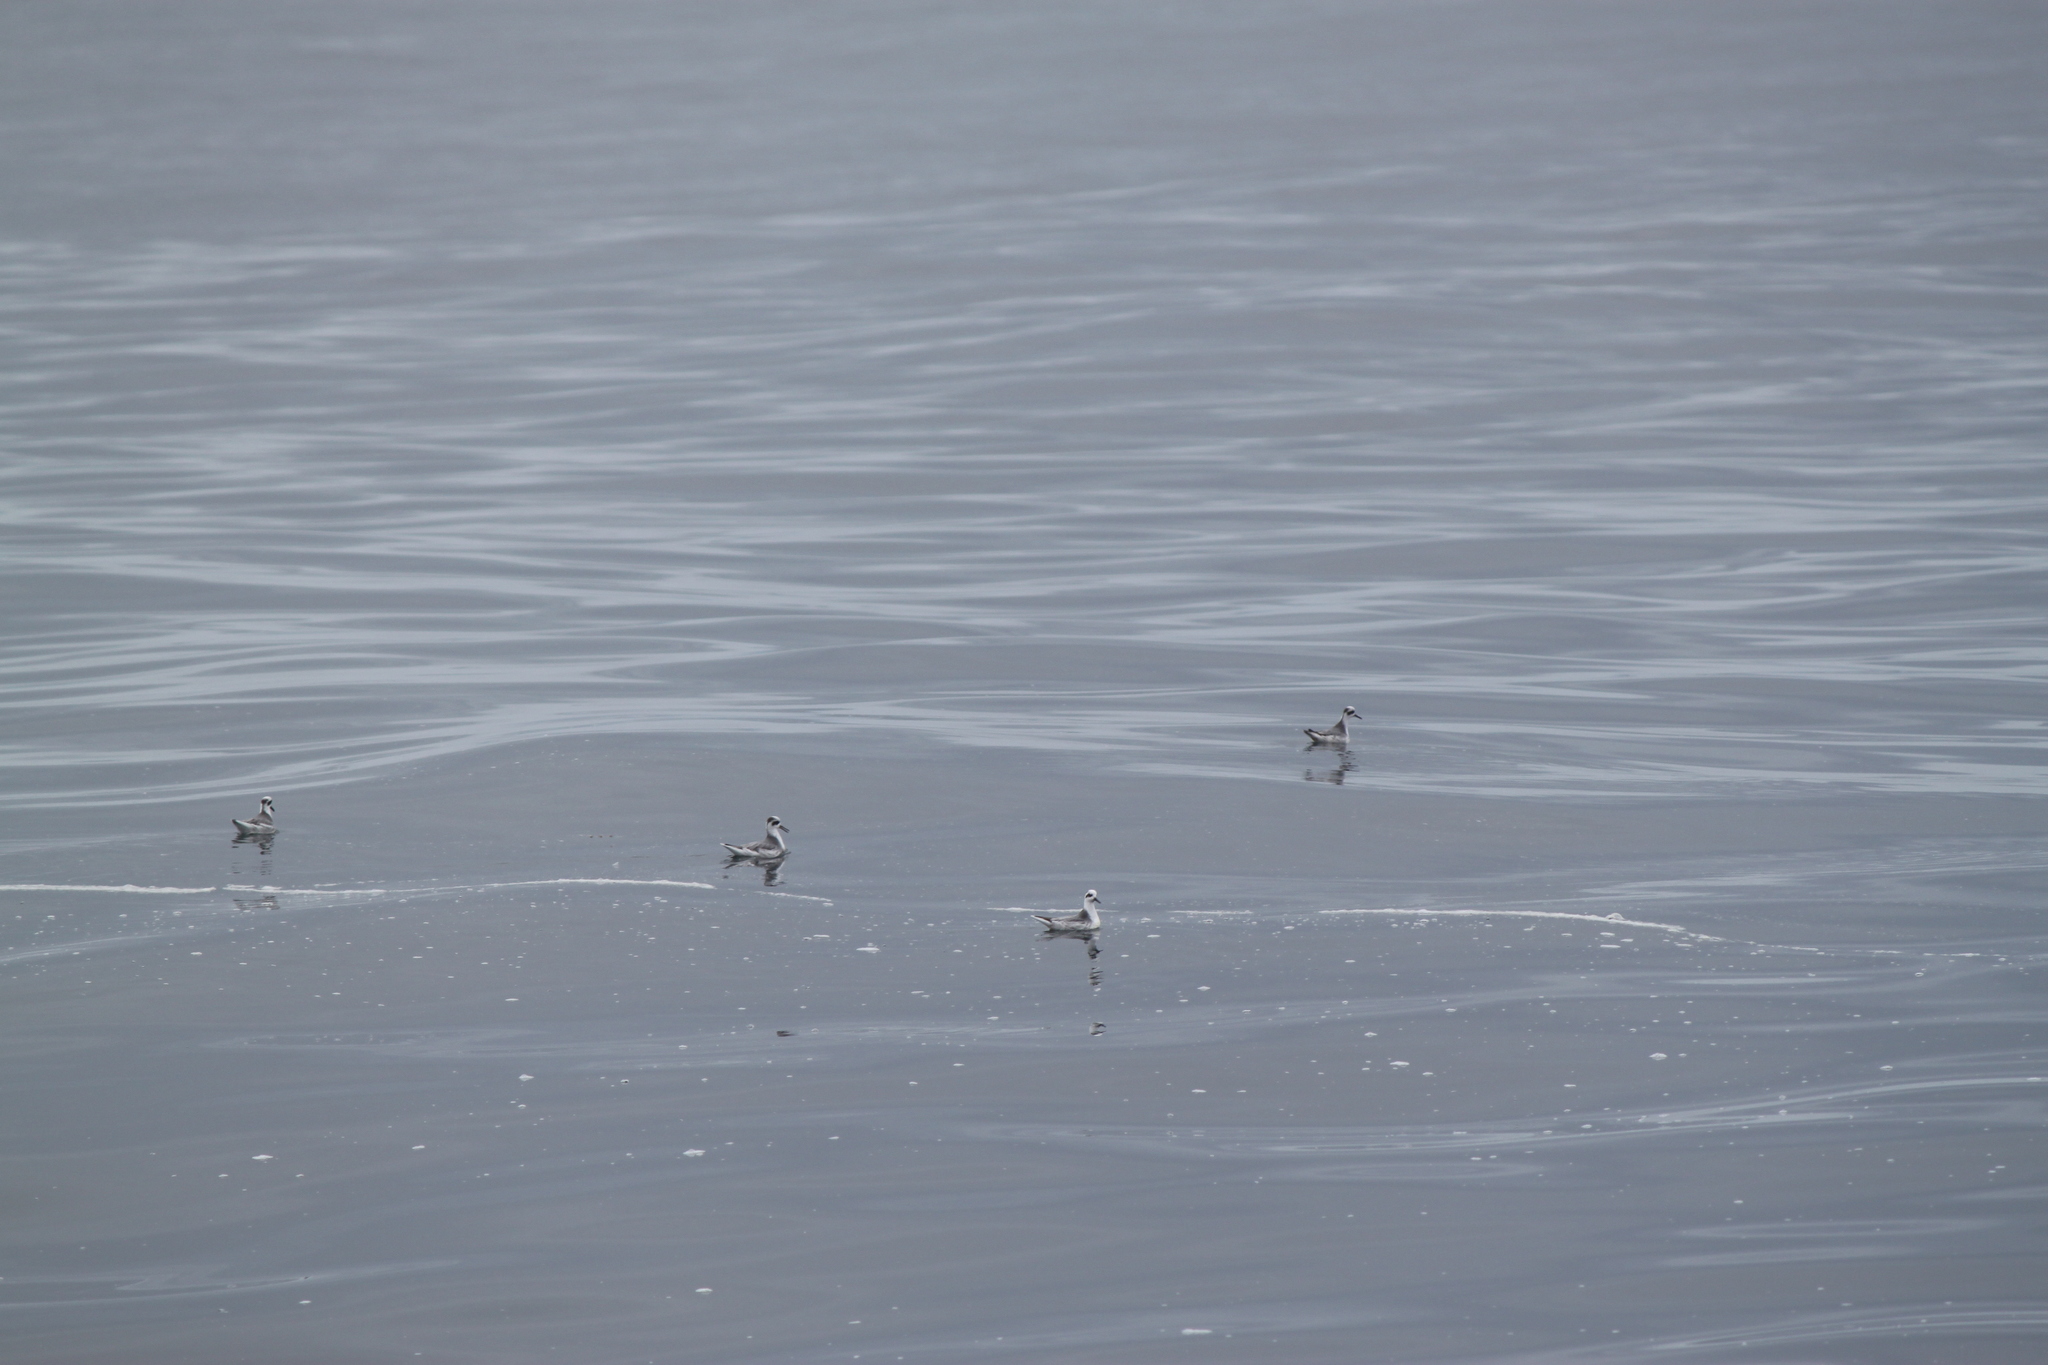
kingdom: Animalia
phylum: Chordata
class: Aves
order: Charadriiformes
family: Scolopacidae
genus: Phalaropus
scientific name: Phalaropus fulicarius
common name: Red phalarope
